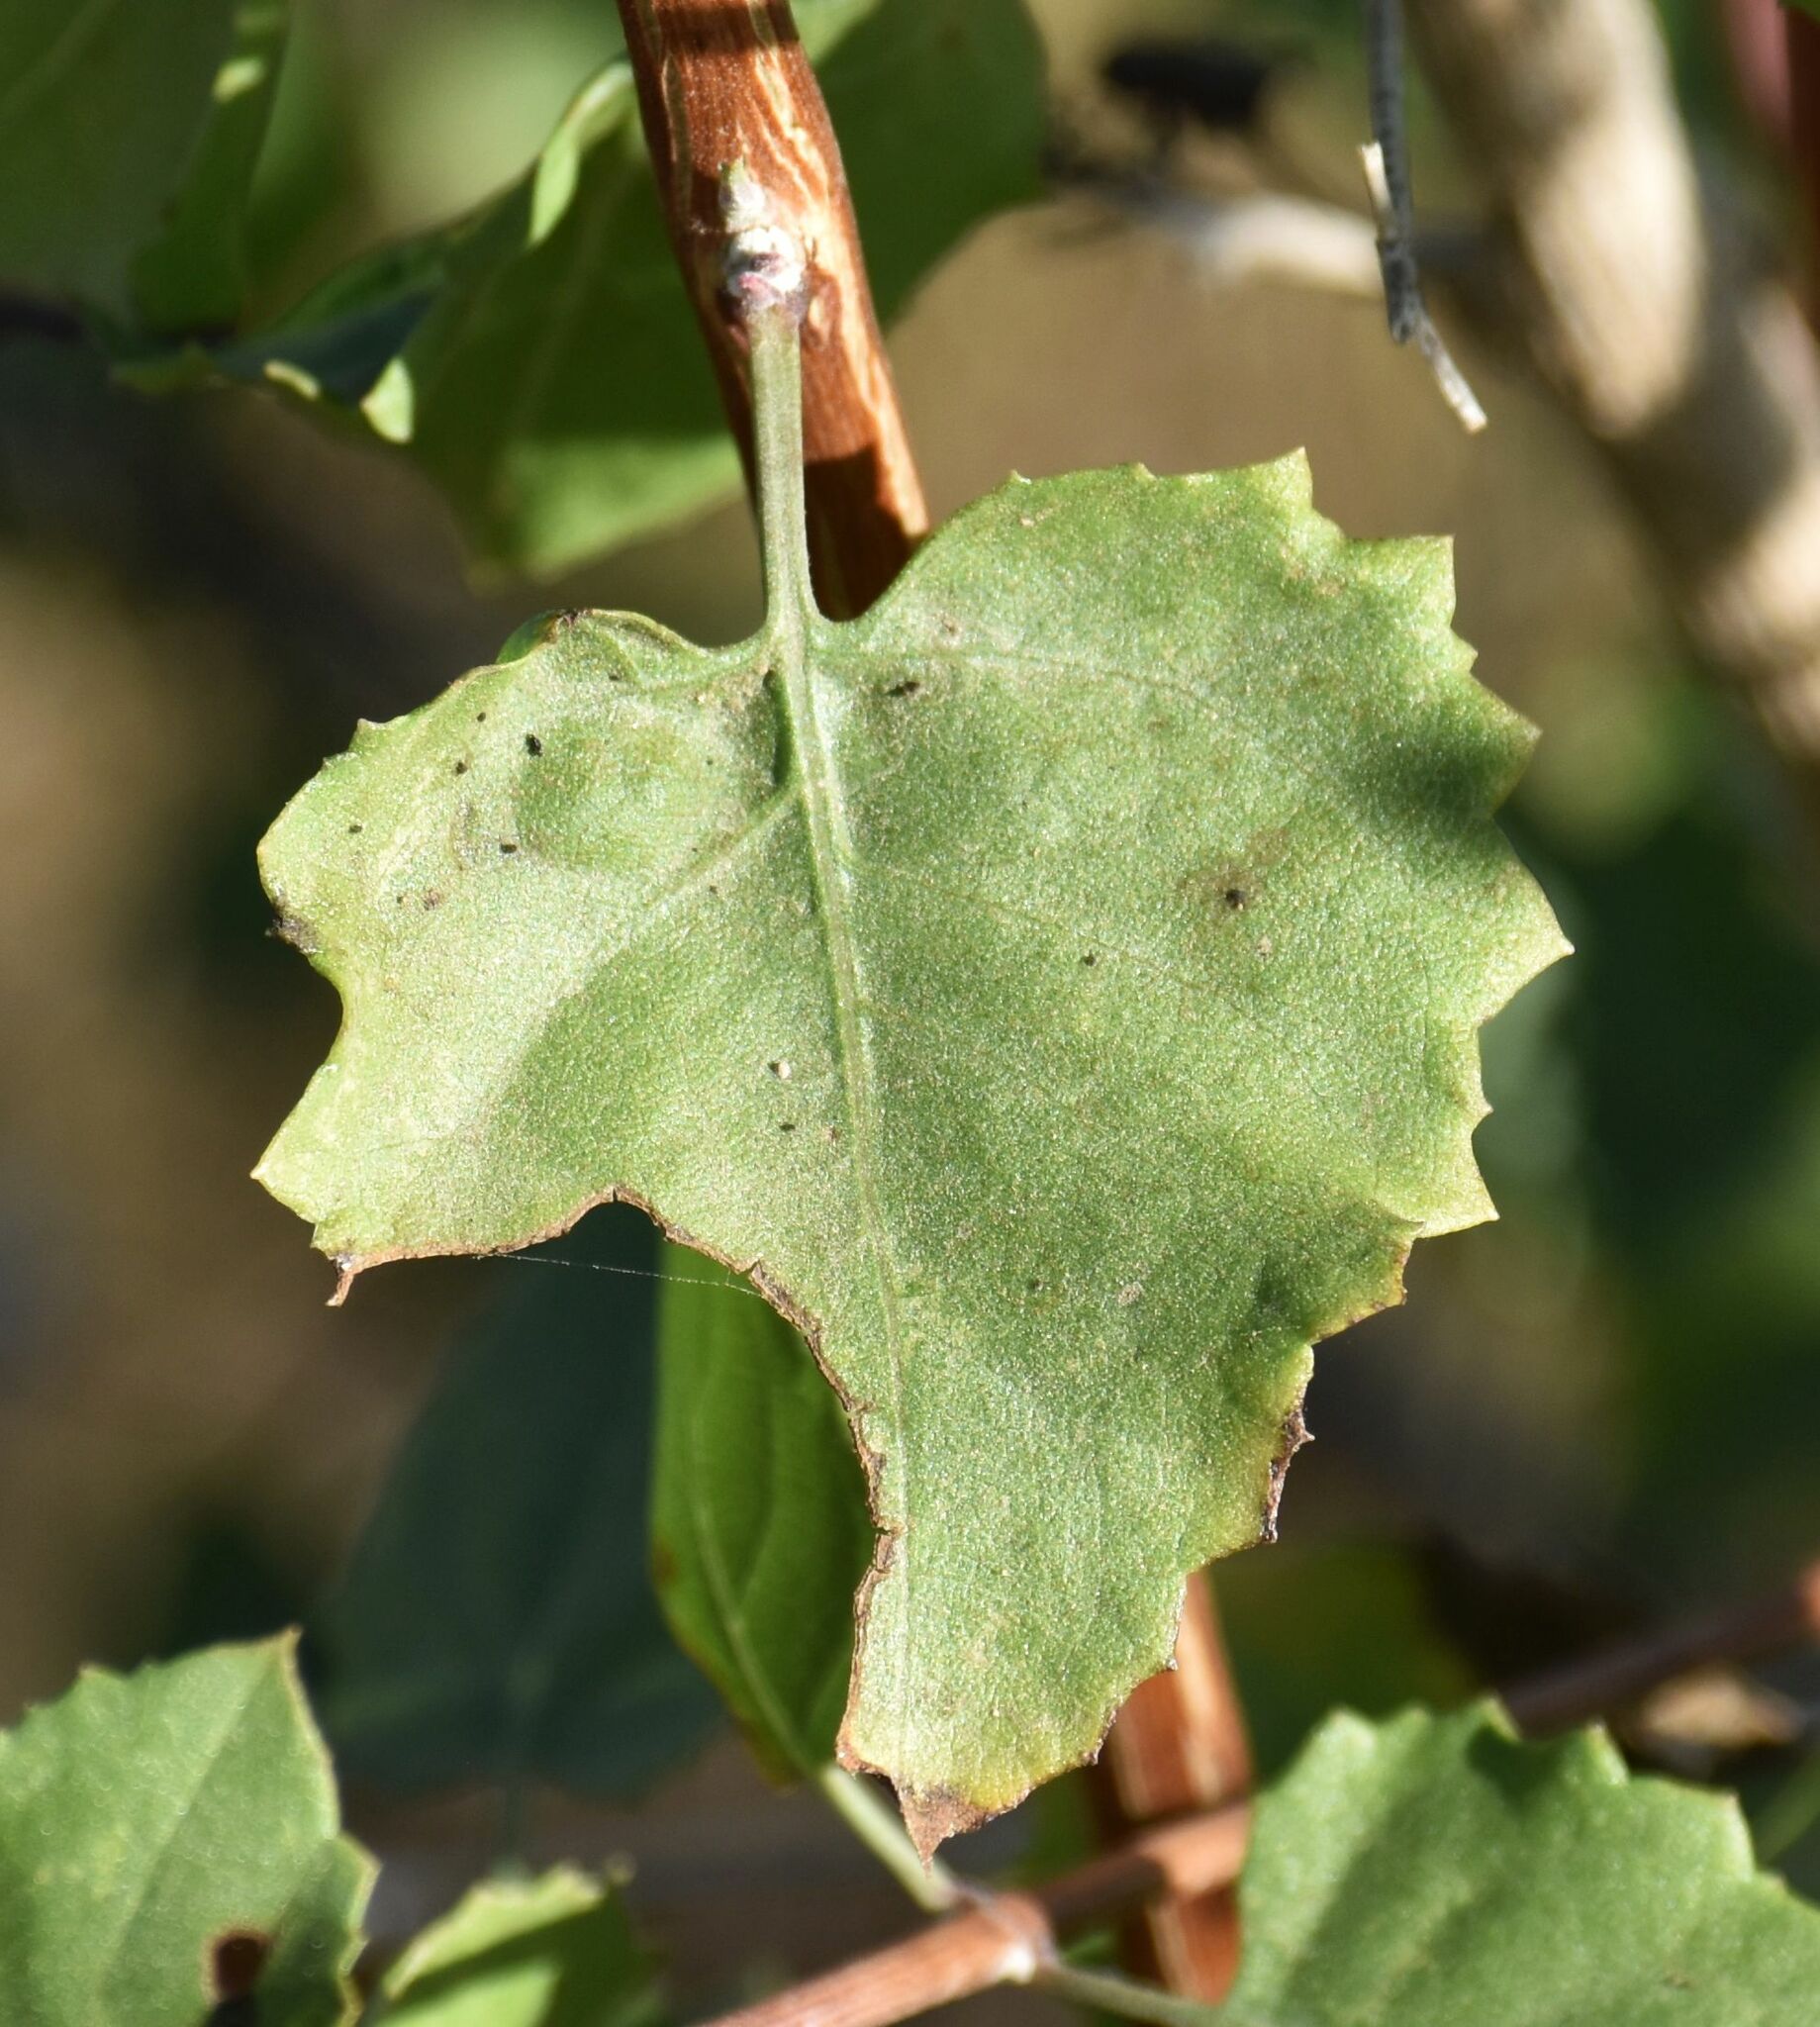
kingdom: Plantae
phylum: Tracheophyta
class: Magnoliopsida
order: Lamiales
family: Lamiaceae
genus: Condea
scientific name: Condea laniflora
